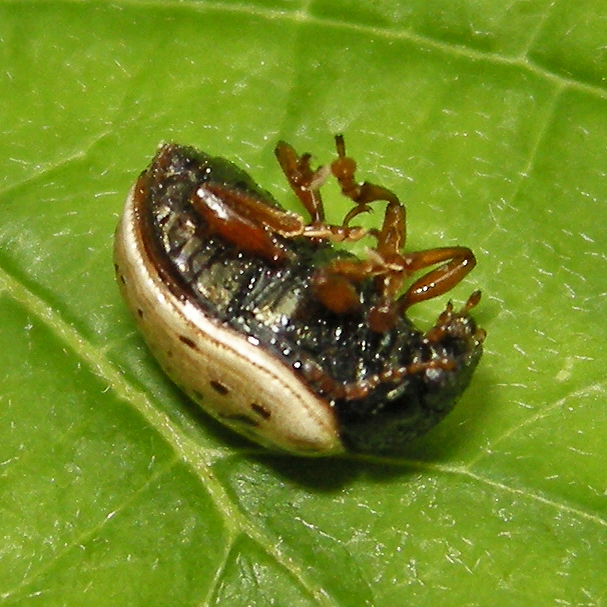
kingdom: Animalia
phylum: Arthropoda
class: Insecta
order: Coleoptera
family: Chrysomelidae
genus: Calligrapha
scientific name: Calligrapha philadelphica
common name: Dogwood leaf beetle
